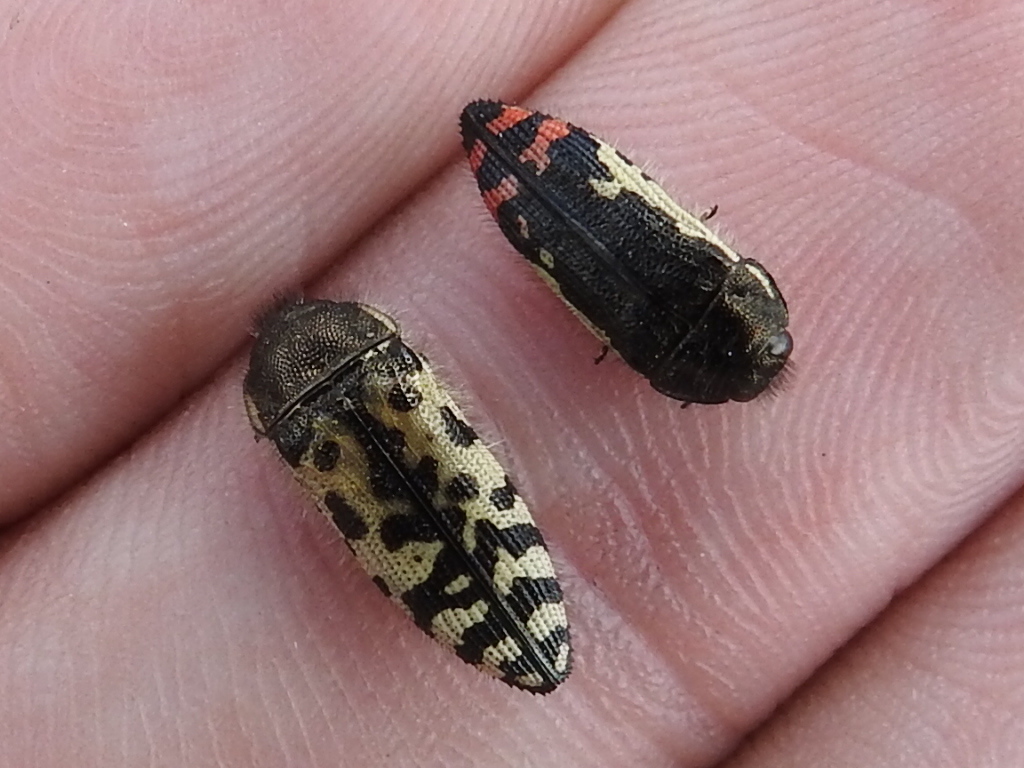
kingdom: Animalia
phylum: Arthropoda
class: Insecta
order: Coleoptera
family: Buprestidae
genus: Acmaeodera
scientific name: Acmaeodera decipiens
